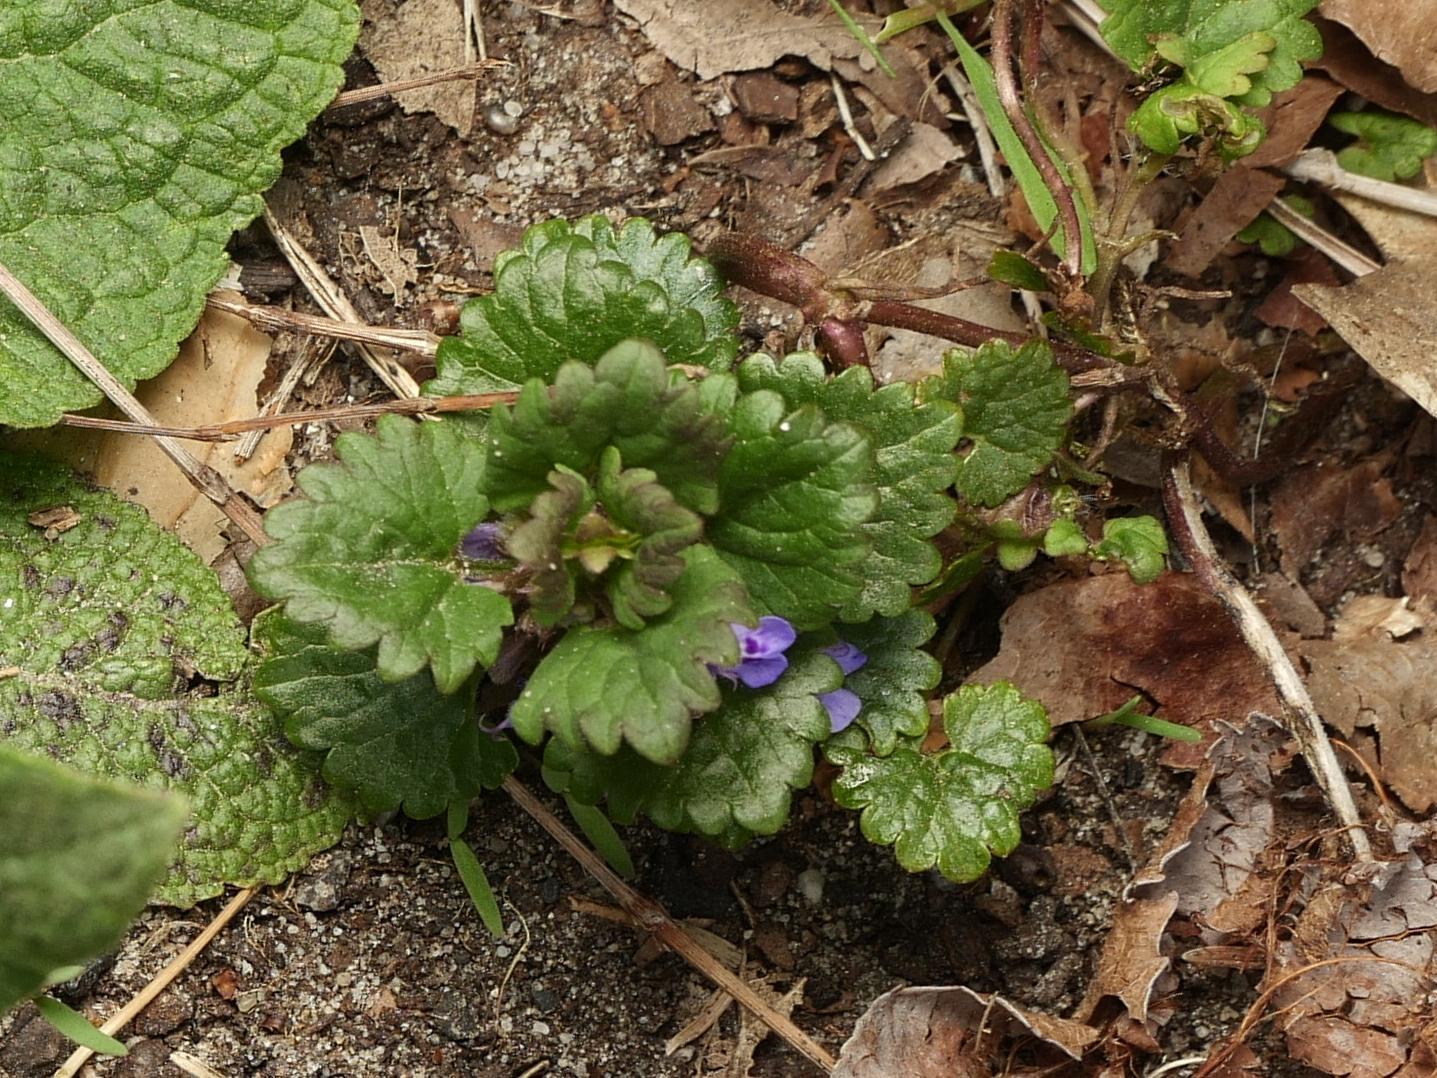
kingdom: Plantae
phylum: Tracheophyta
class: Magnoliopsida
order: Lamiales
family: Lamiaceae
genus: Glechoma
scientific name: Glechoma hederacea
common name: Ground ivy
